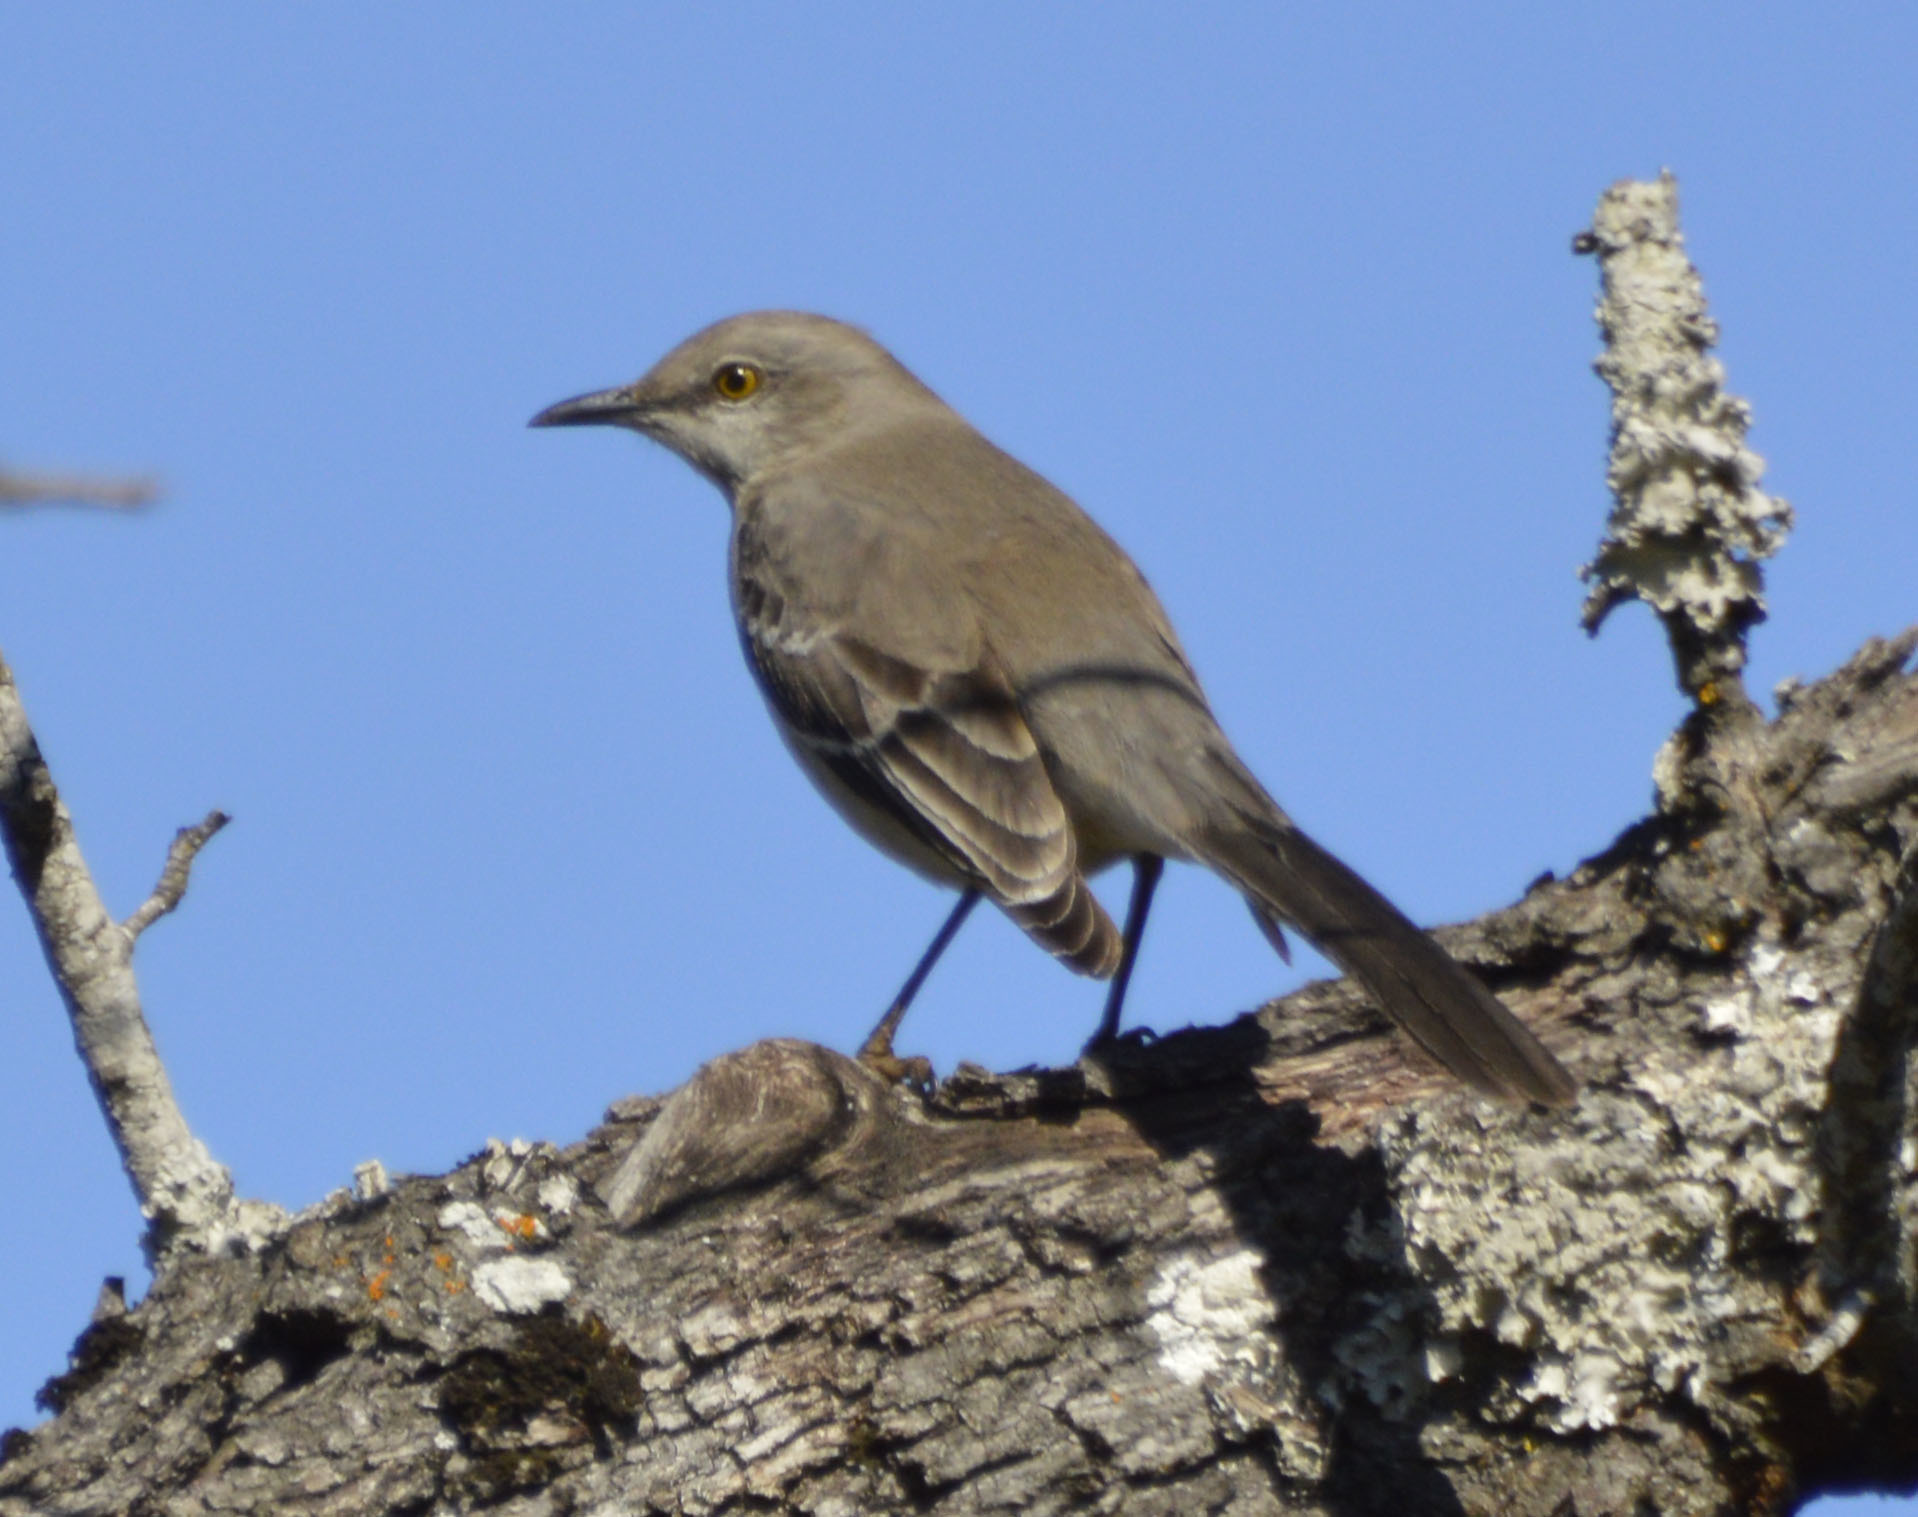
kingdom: Animalia
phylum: Chordata
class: Aves
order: Passeriformes
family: Mimidae
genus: Mimus
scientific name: Mimus polyglottos
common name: Northern mockingbird
